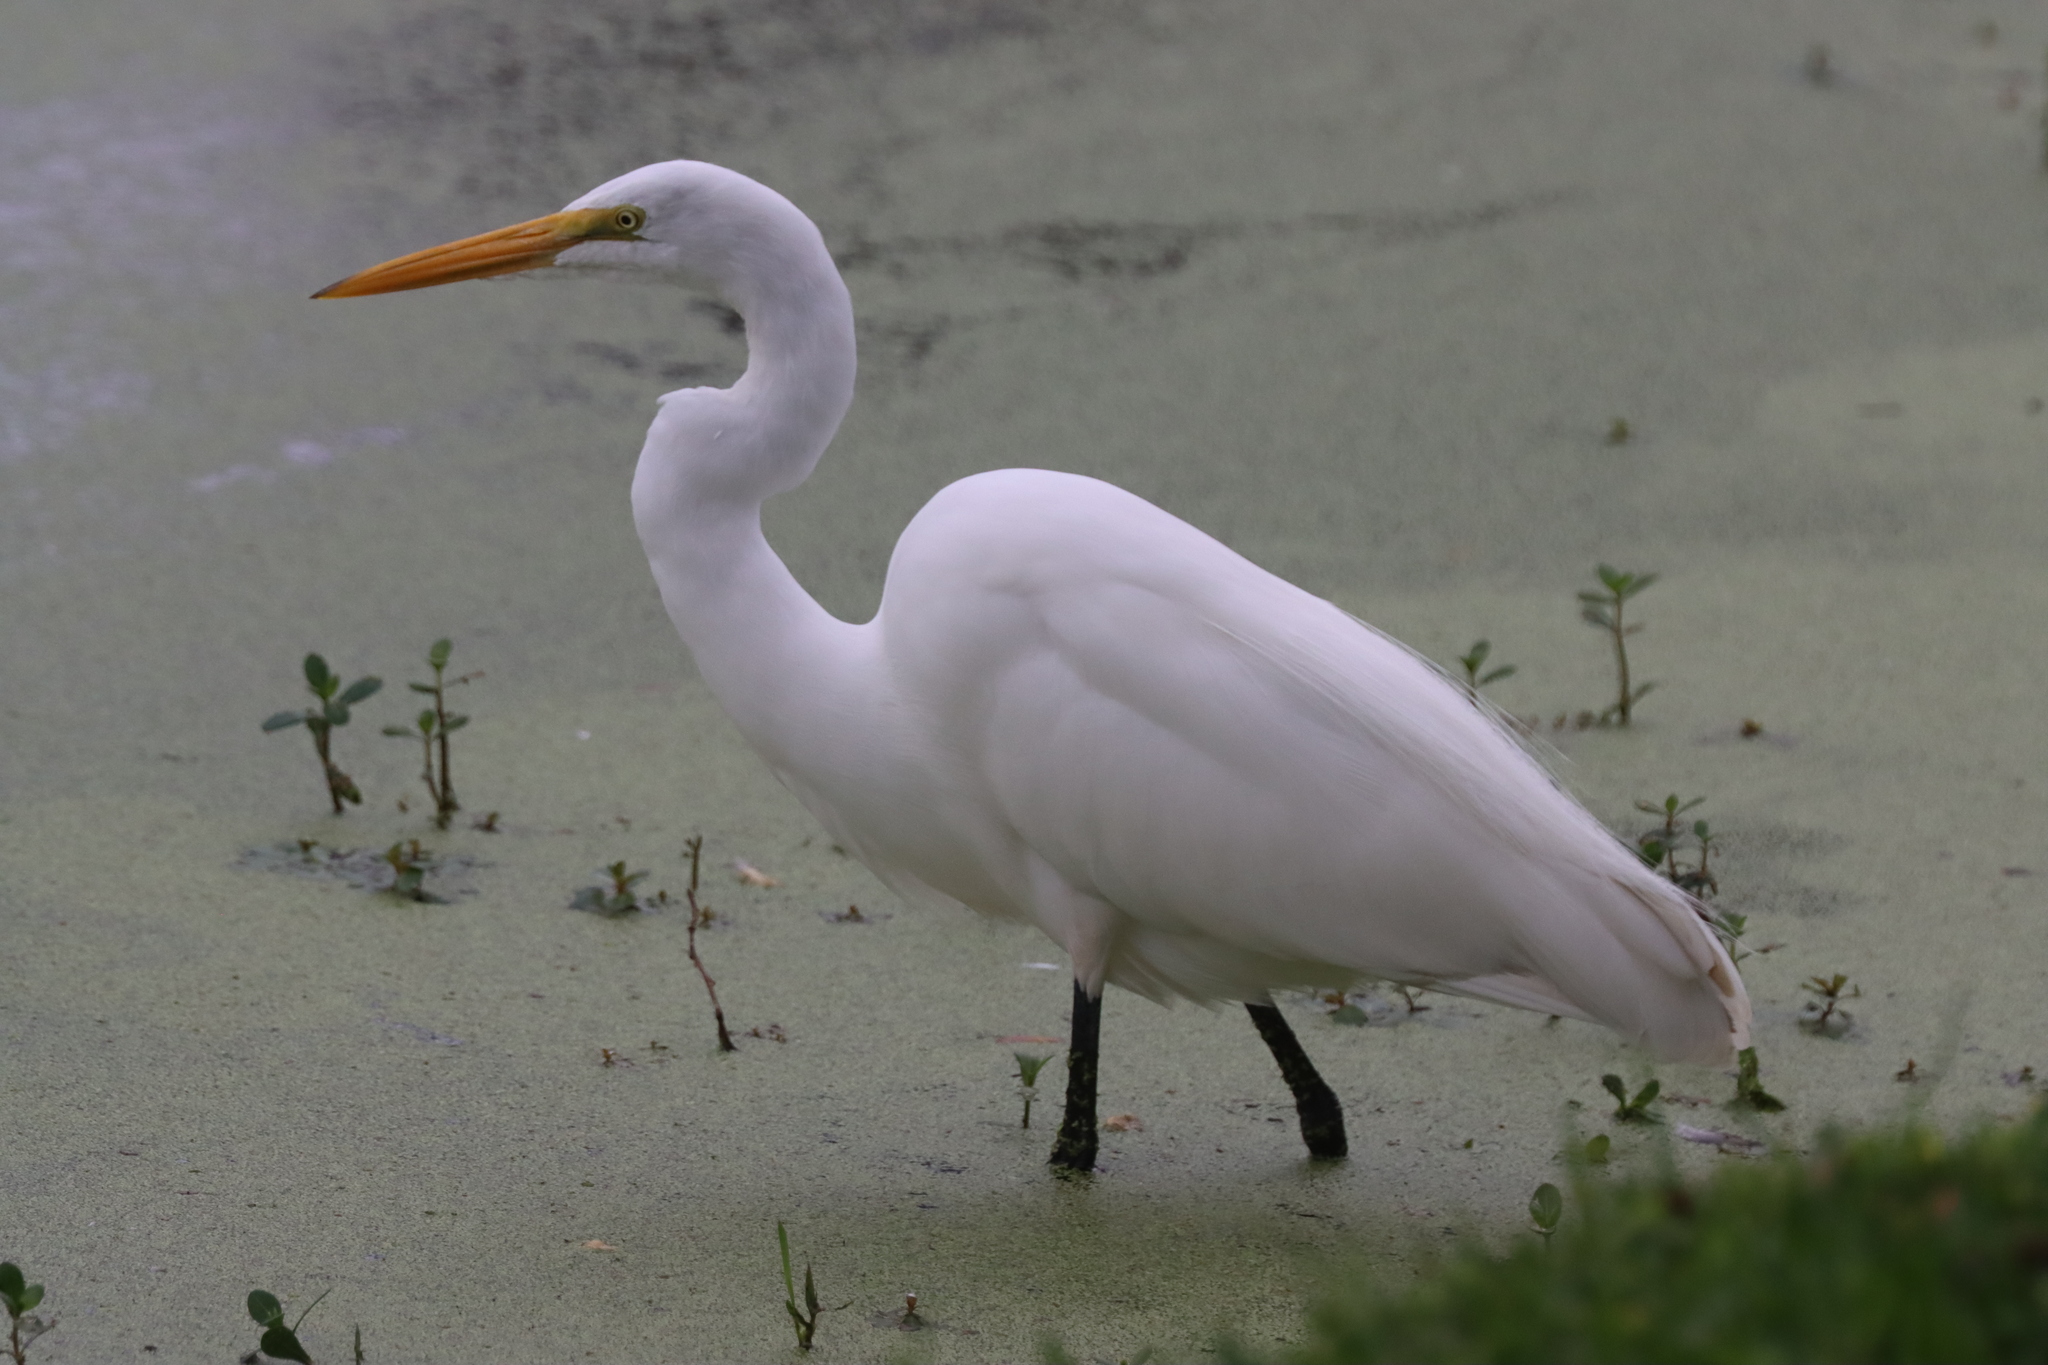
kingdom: Animalia
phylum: Chordata
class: Aves
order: Pelecaniformes
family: Ardeidae
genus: Ardea
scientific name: Ardea alba
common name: Great egret
